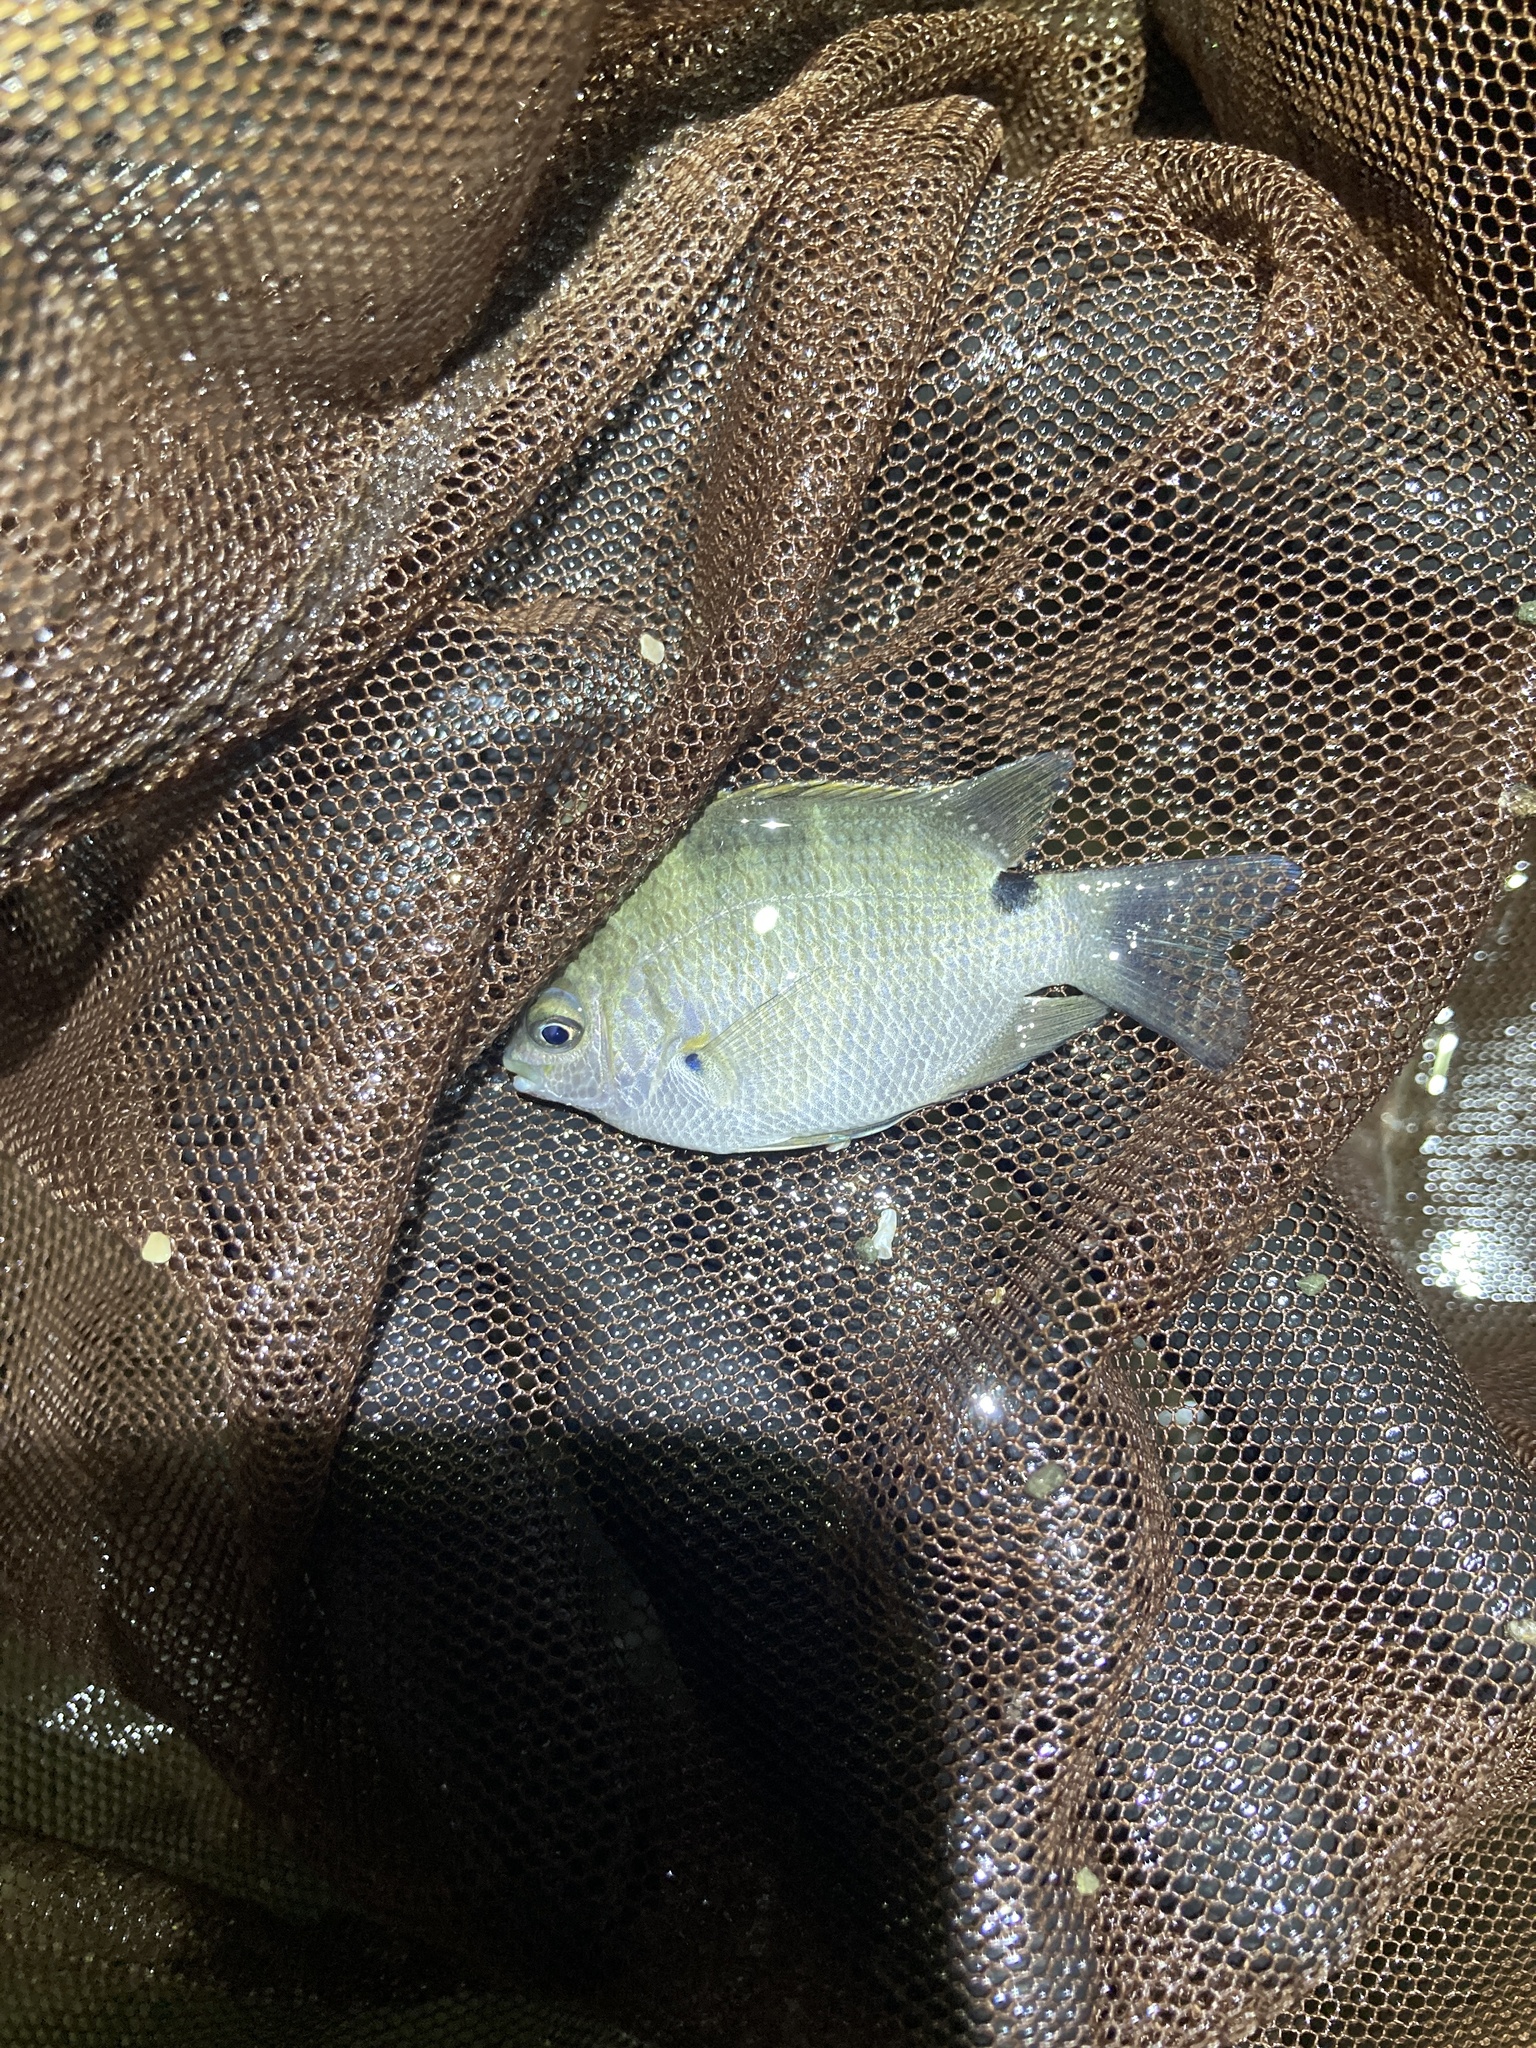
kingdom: Animalia
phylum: Chordata
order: Perciformes
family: Pomacentridae
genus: Abudefduf
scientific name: Abudefduf sordidus
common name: Blackspot sergeant
